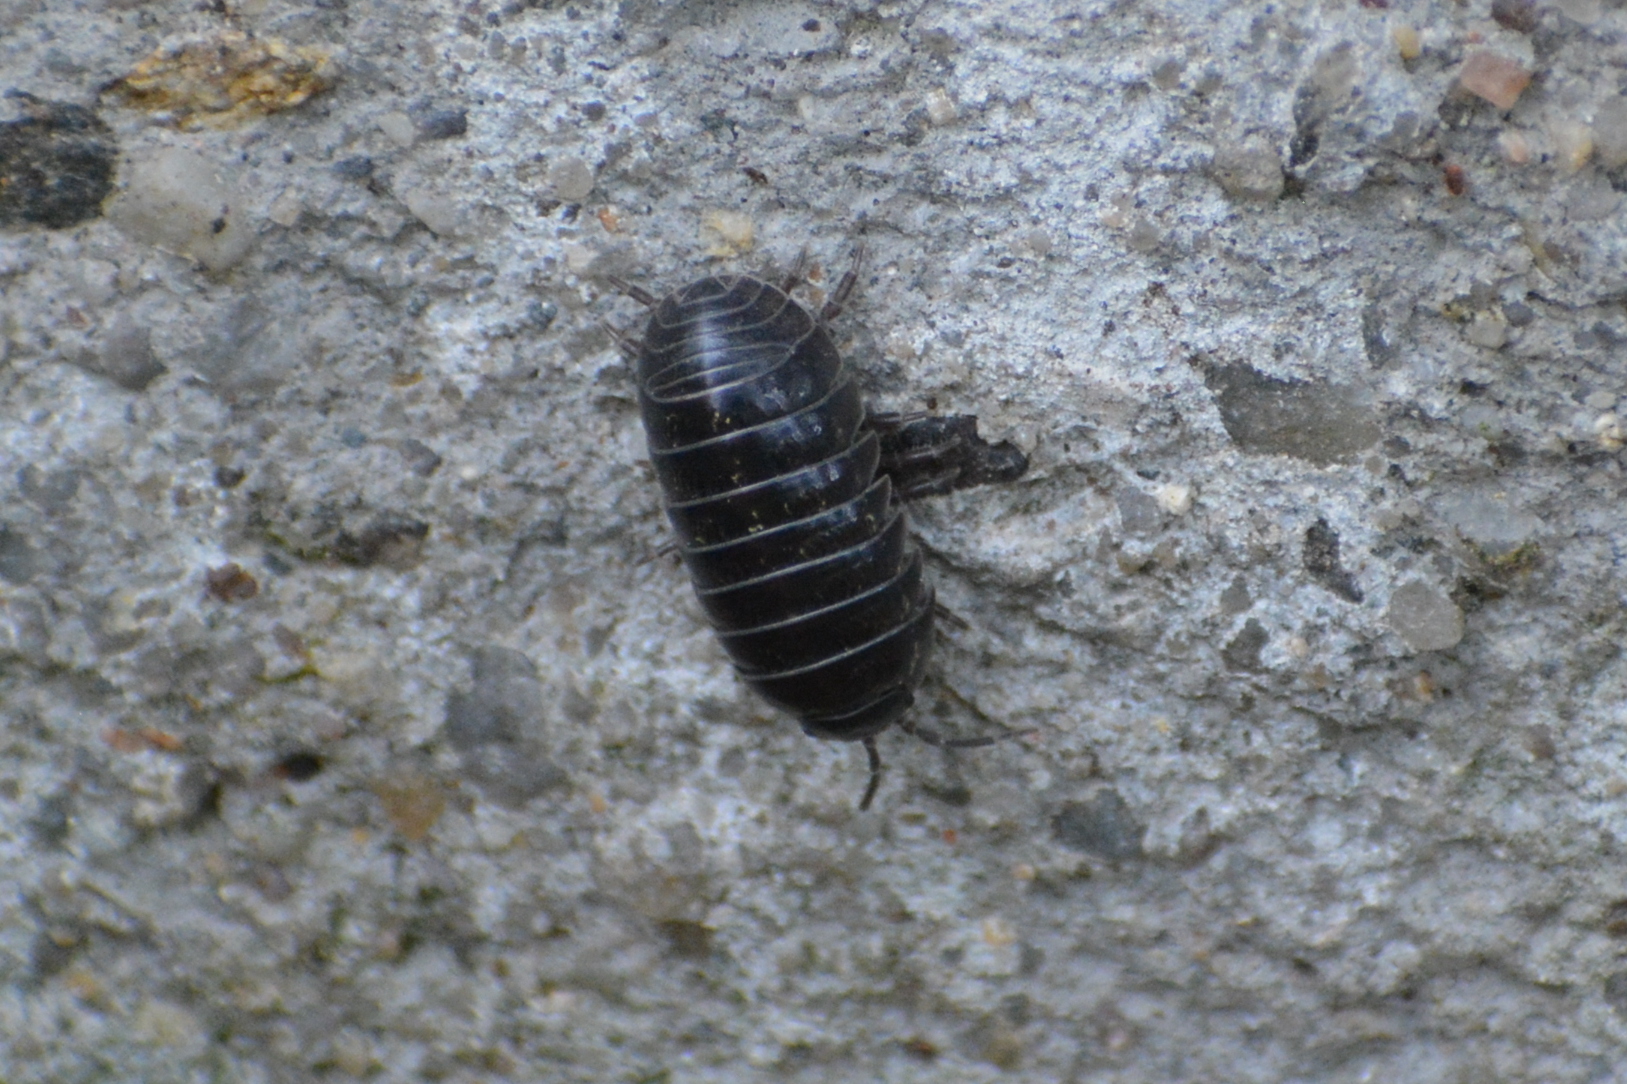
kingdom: Animalia
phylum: Arthropoda
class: Malacostraca
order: Isopoda
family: Armadillidiidae
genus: Armadillidium
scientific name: Armadillidium vulgare
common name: Common pill woodlouse
